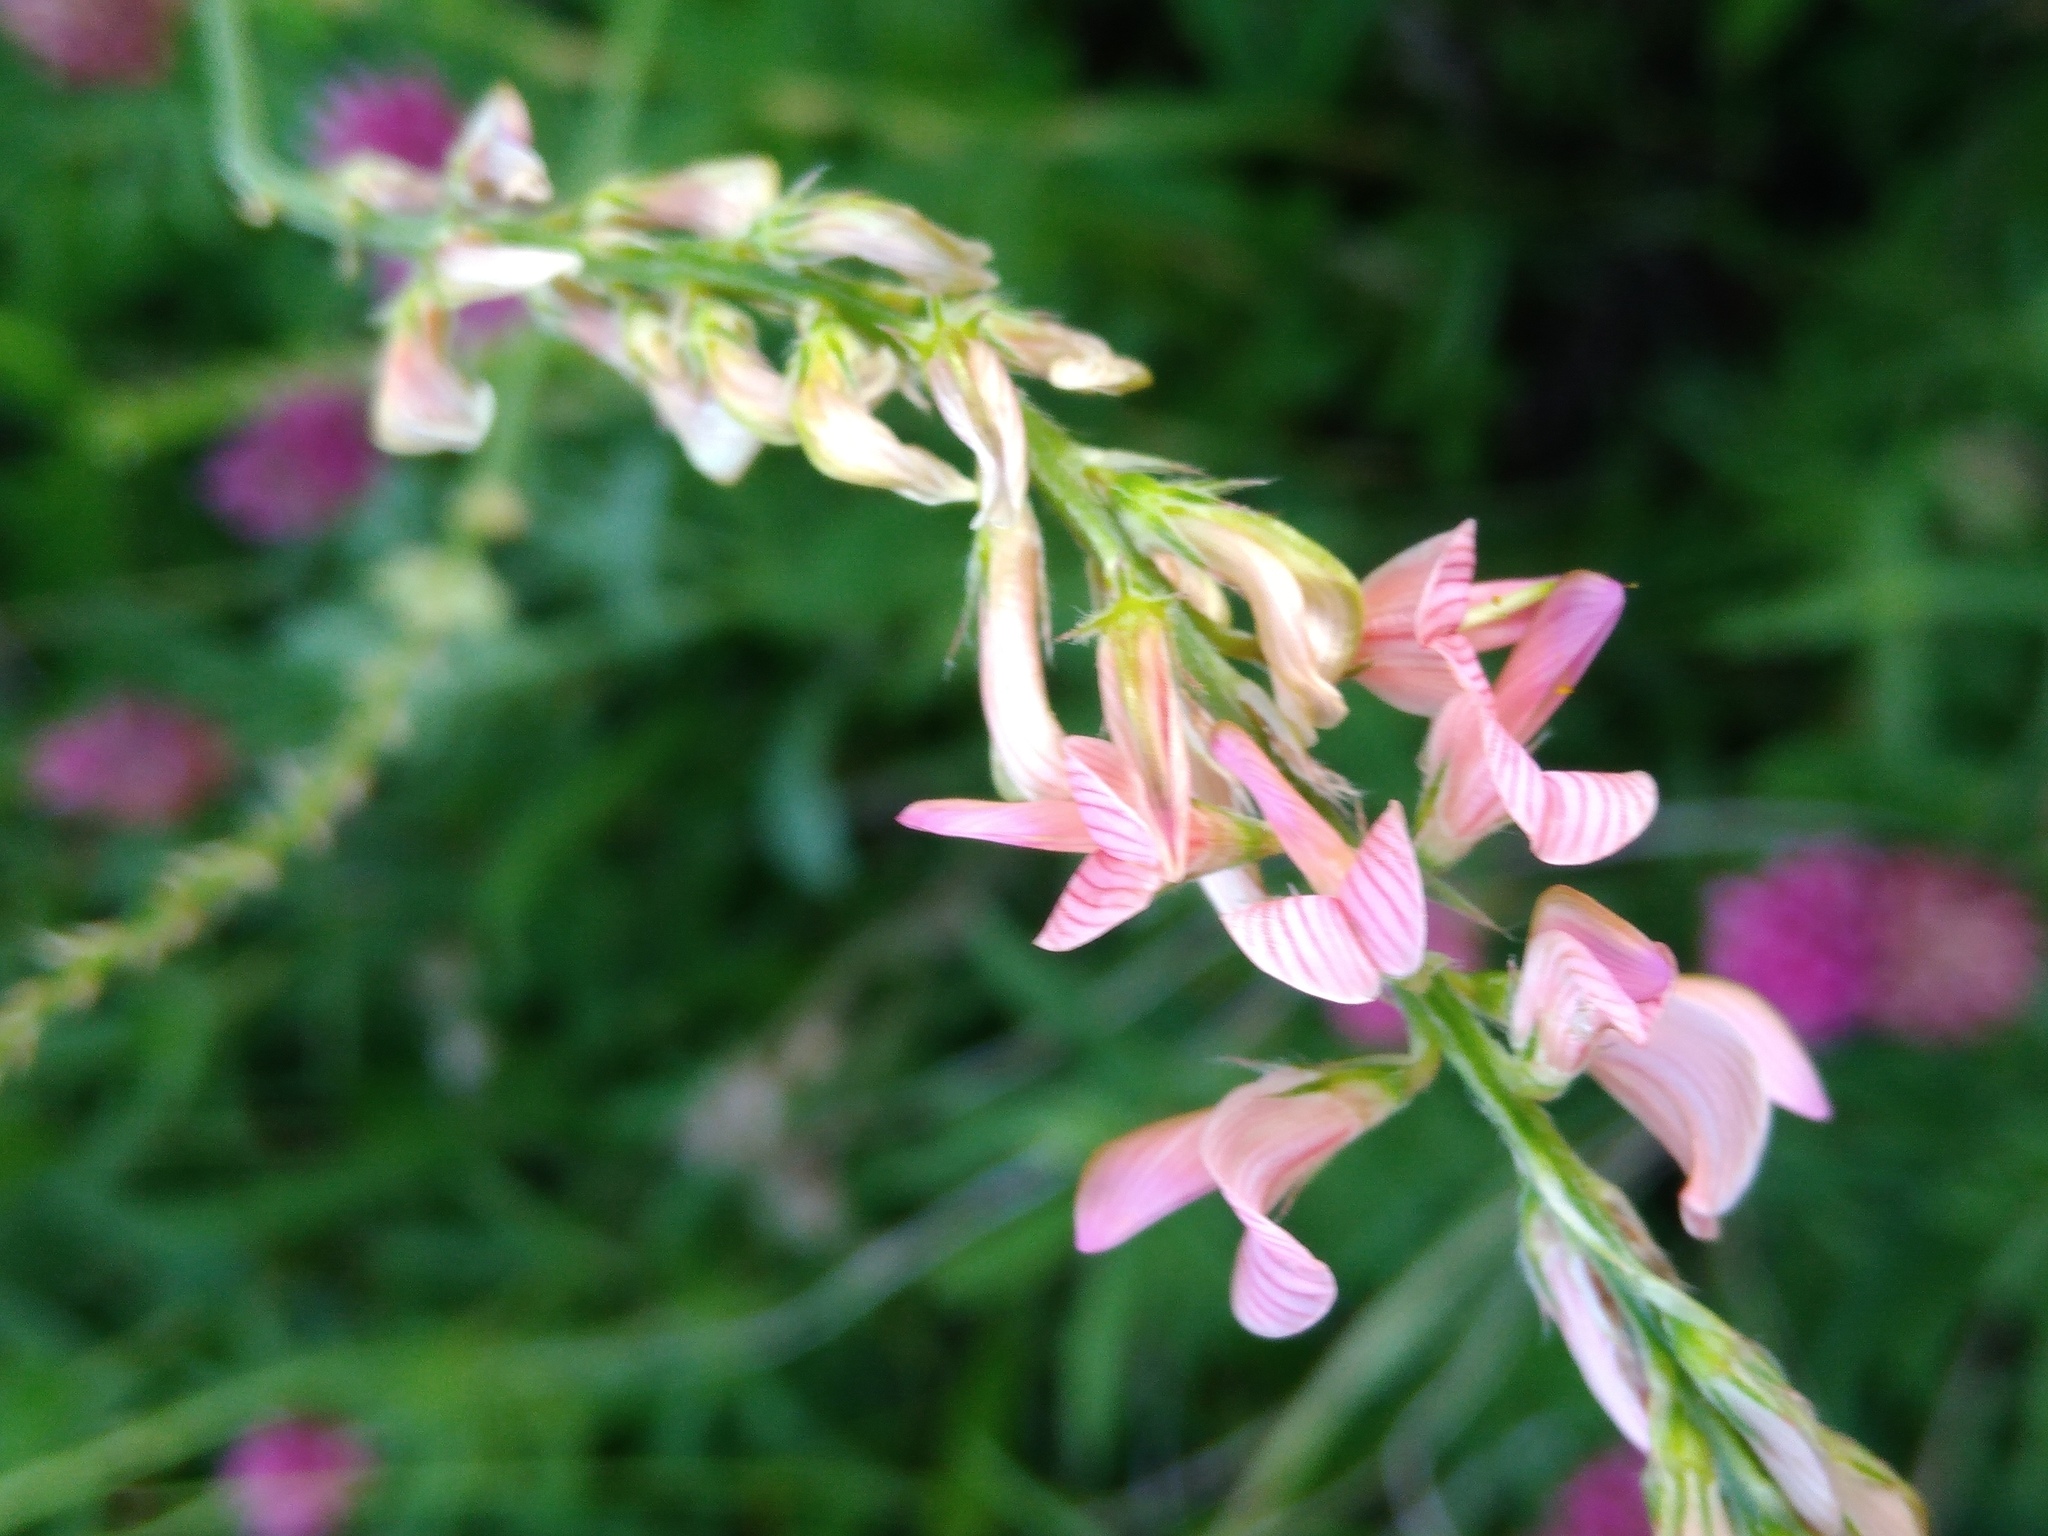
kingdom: Plantae
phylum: Tracheophyta
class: Magnoliopsida
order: Fabales
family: Fabaceae
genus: Onobrychis
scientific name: Onobrychis arenaria
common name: Sand esparcet
